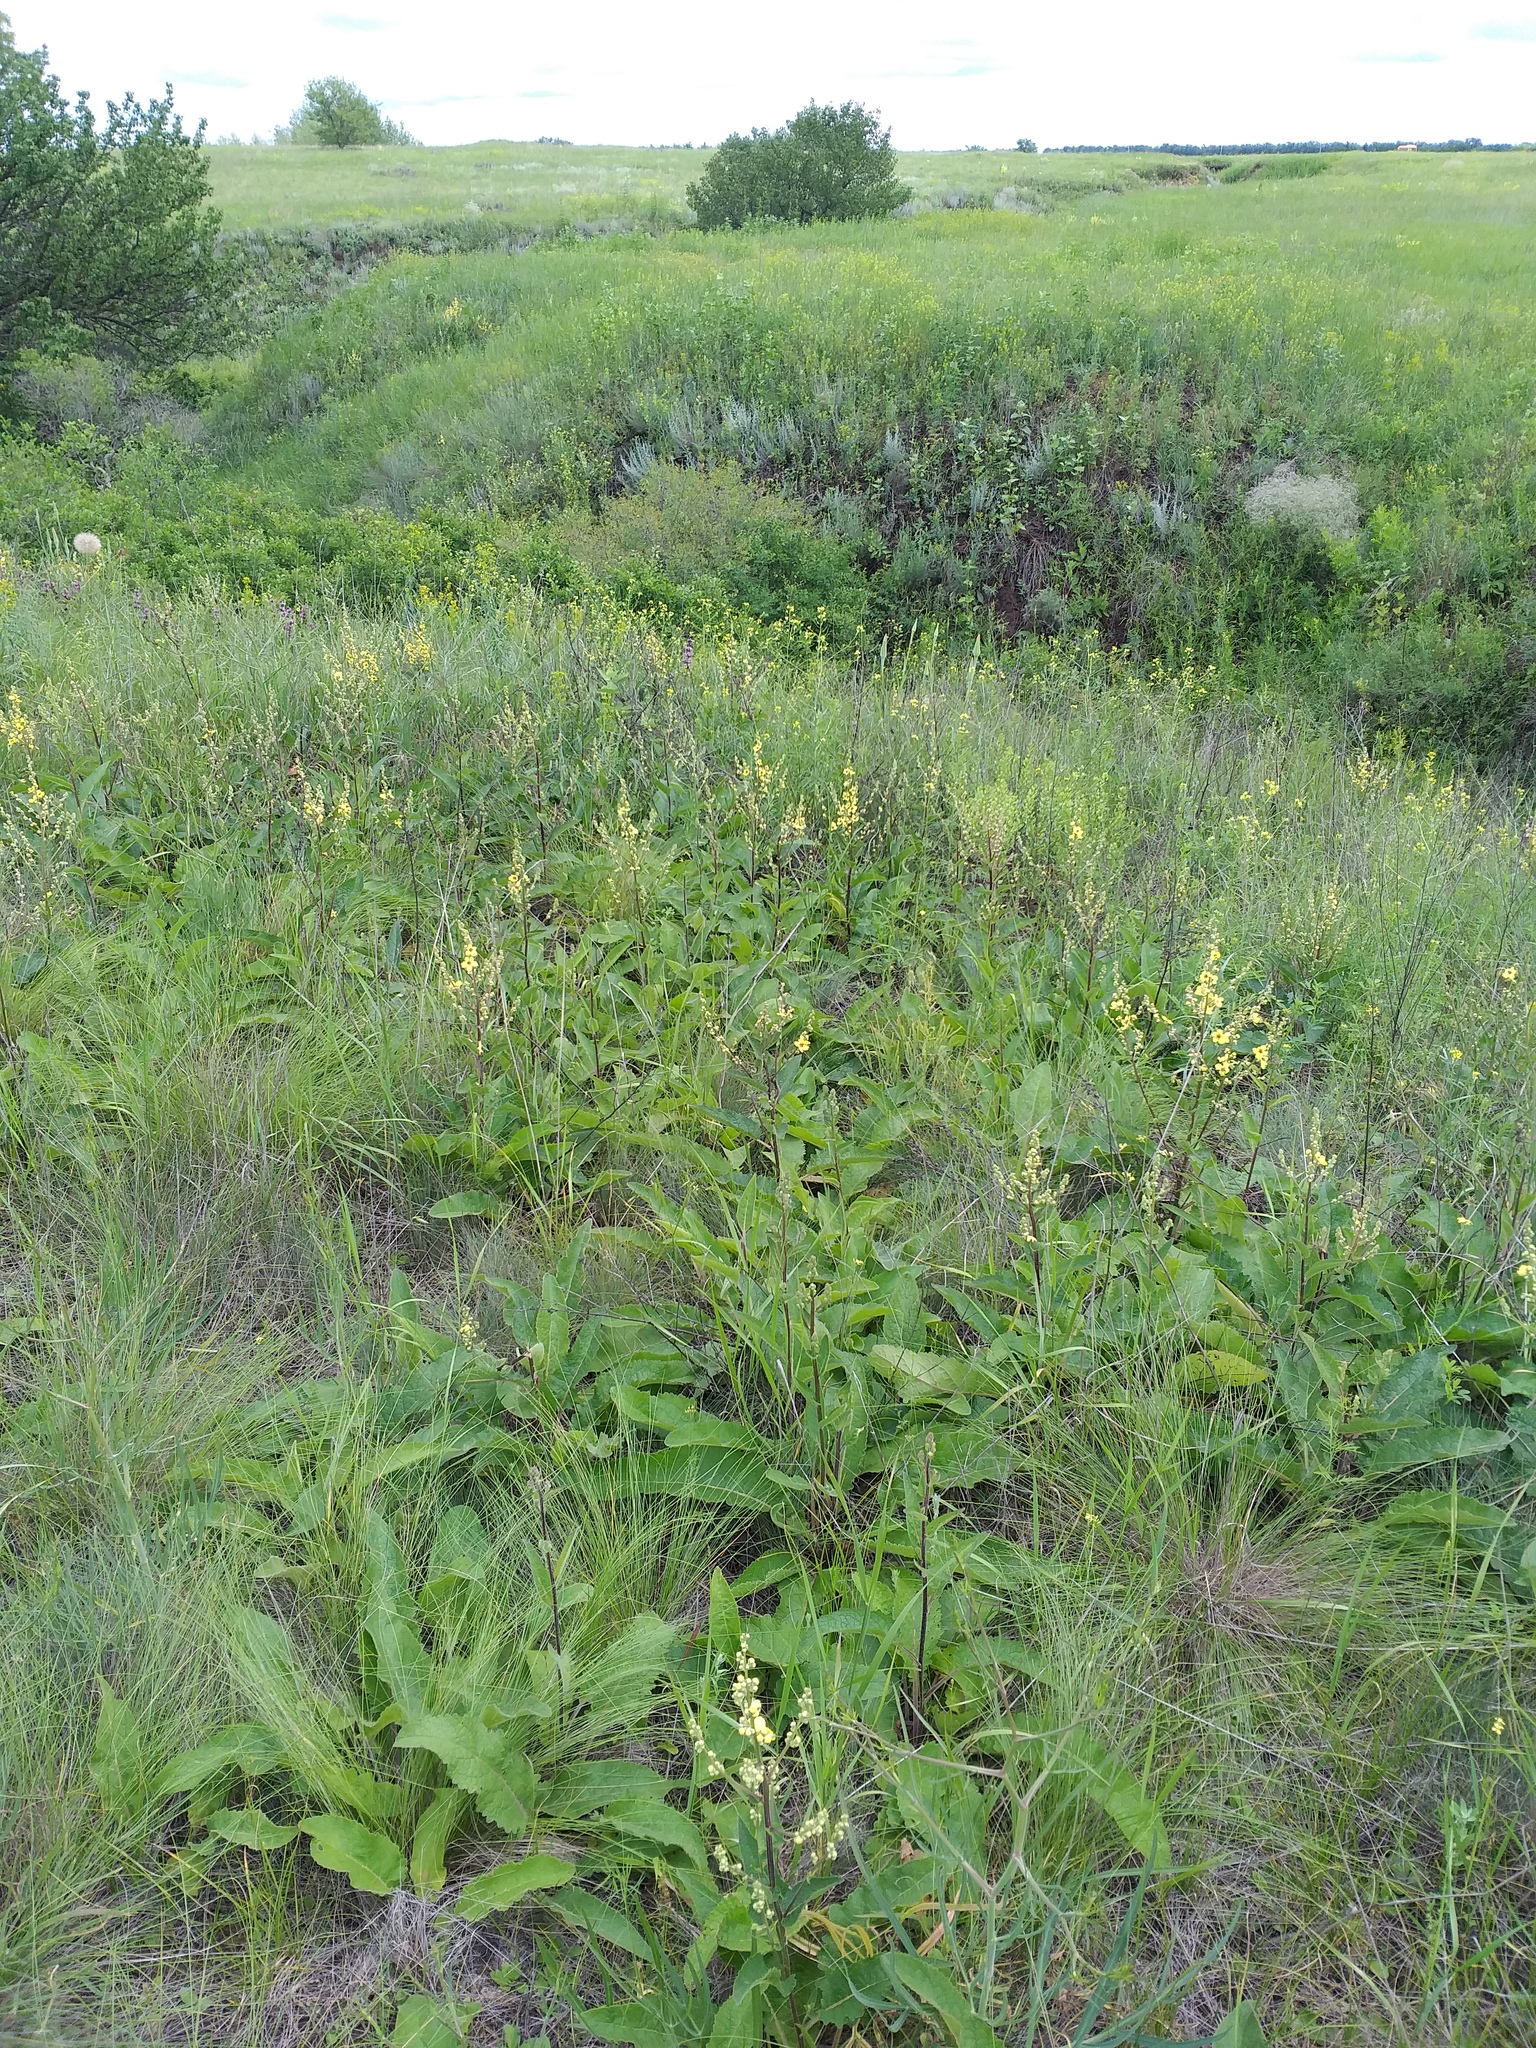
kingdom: Plantae
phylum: Tracheophyta
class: Magnoliopsida
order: Lamiales
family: Scrophulariaceae
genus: Verbascum
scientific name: Verbascum chaixii
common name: Nettle-leaved mullein
